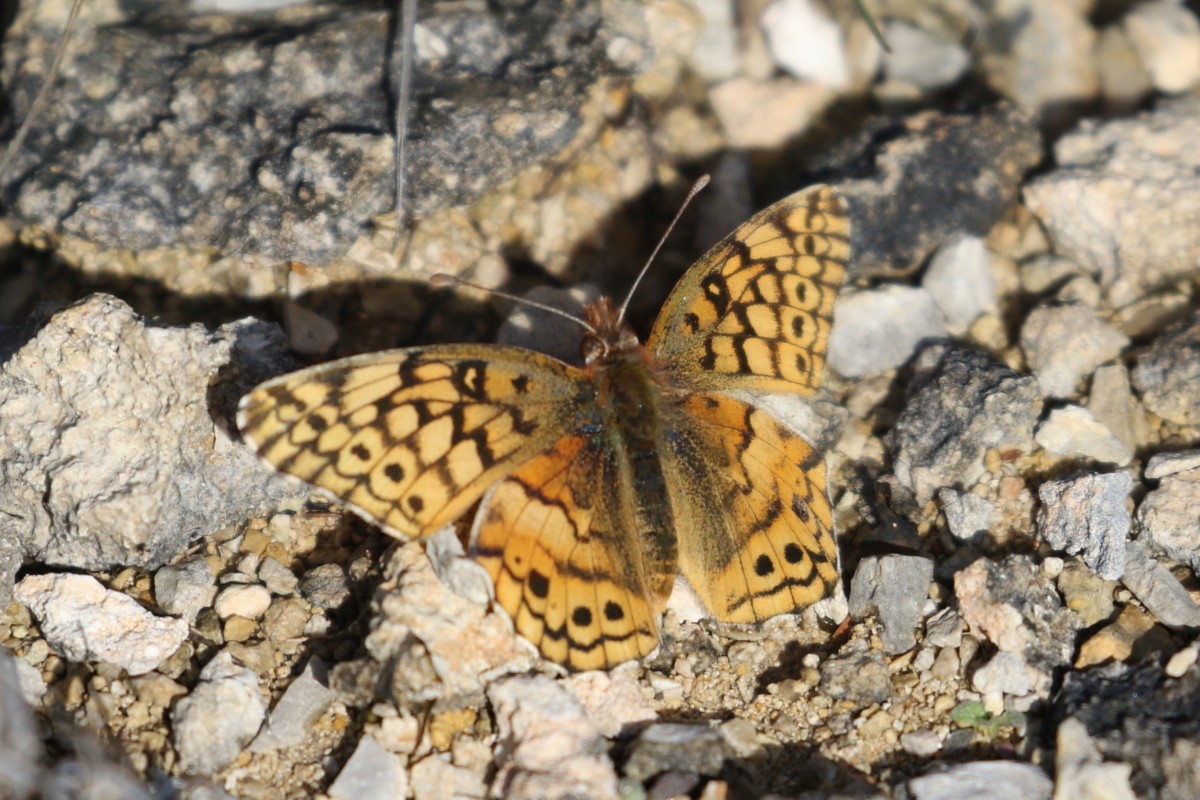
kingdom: Animalia
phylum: Arthropoda
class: Insecta
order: Lepidoptera
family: Nymphalidae
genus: Euptoieta
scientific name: Euptoieta claudia
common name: Variegated fritillary
